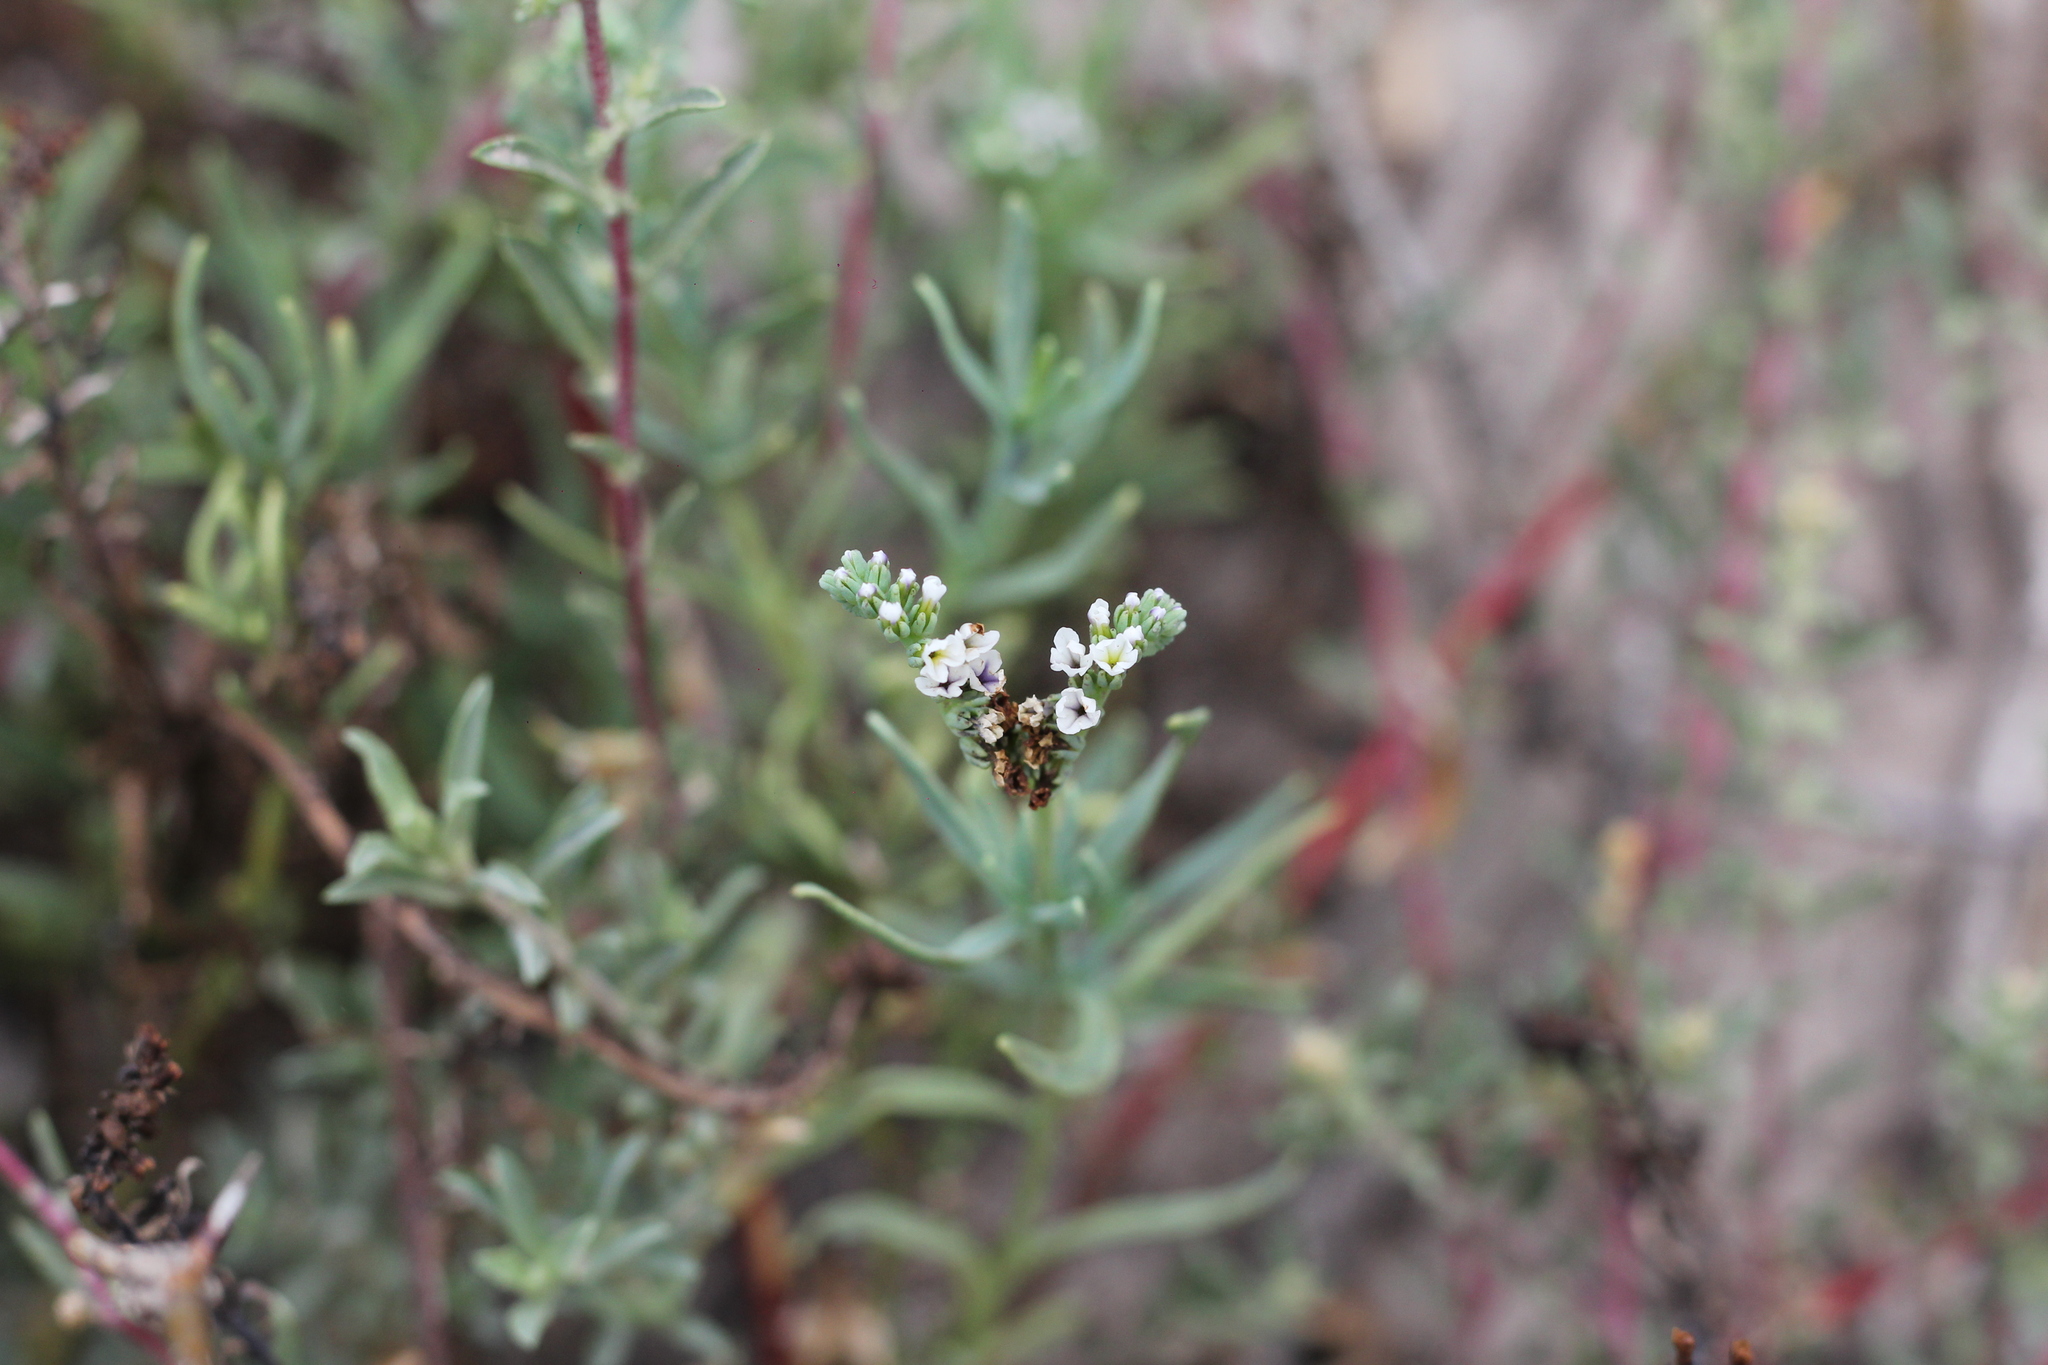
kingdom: Plantae
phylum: Tracheophyta
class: Magnoliopsida
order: Boraginales
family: Heliotropiaceae
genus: Heliotropium
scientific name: Heliotropium curassavicum
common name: Seaside heliotrope
